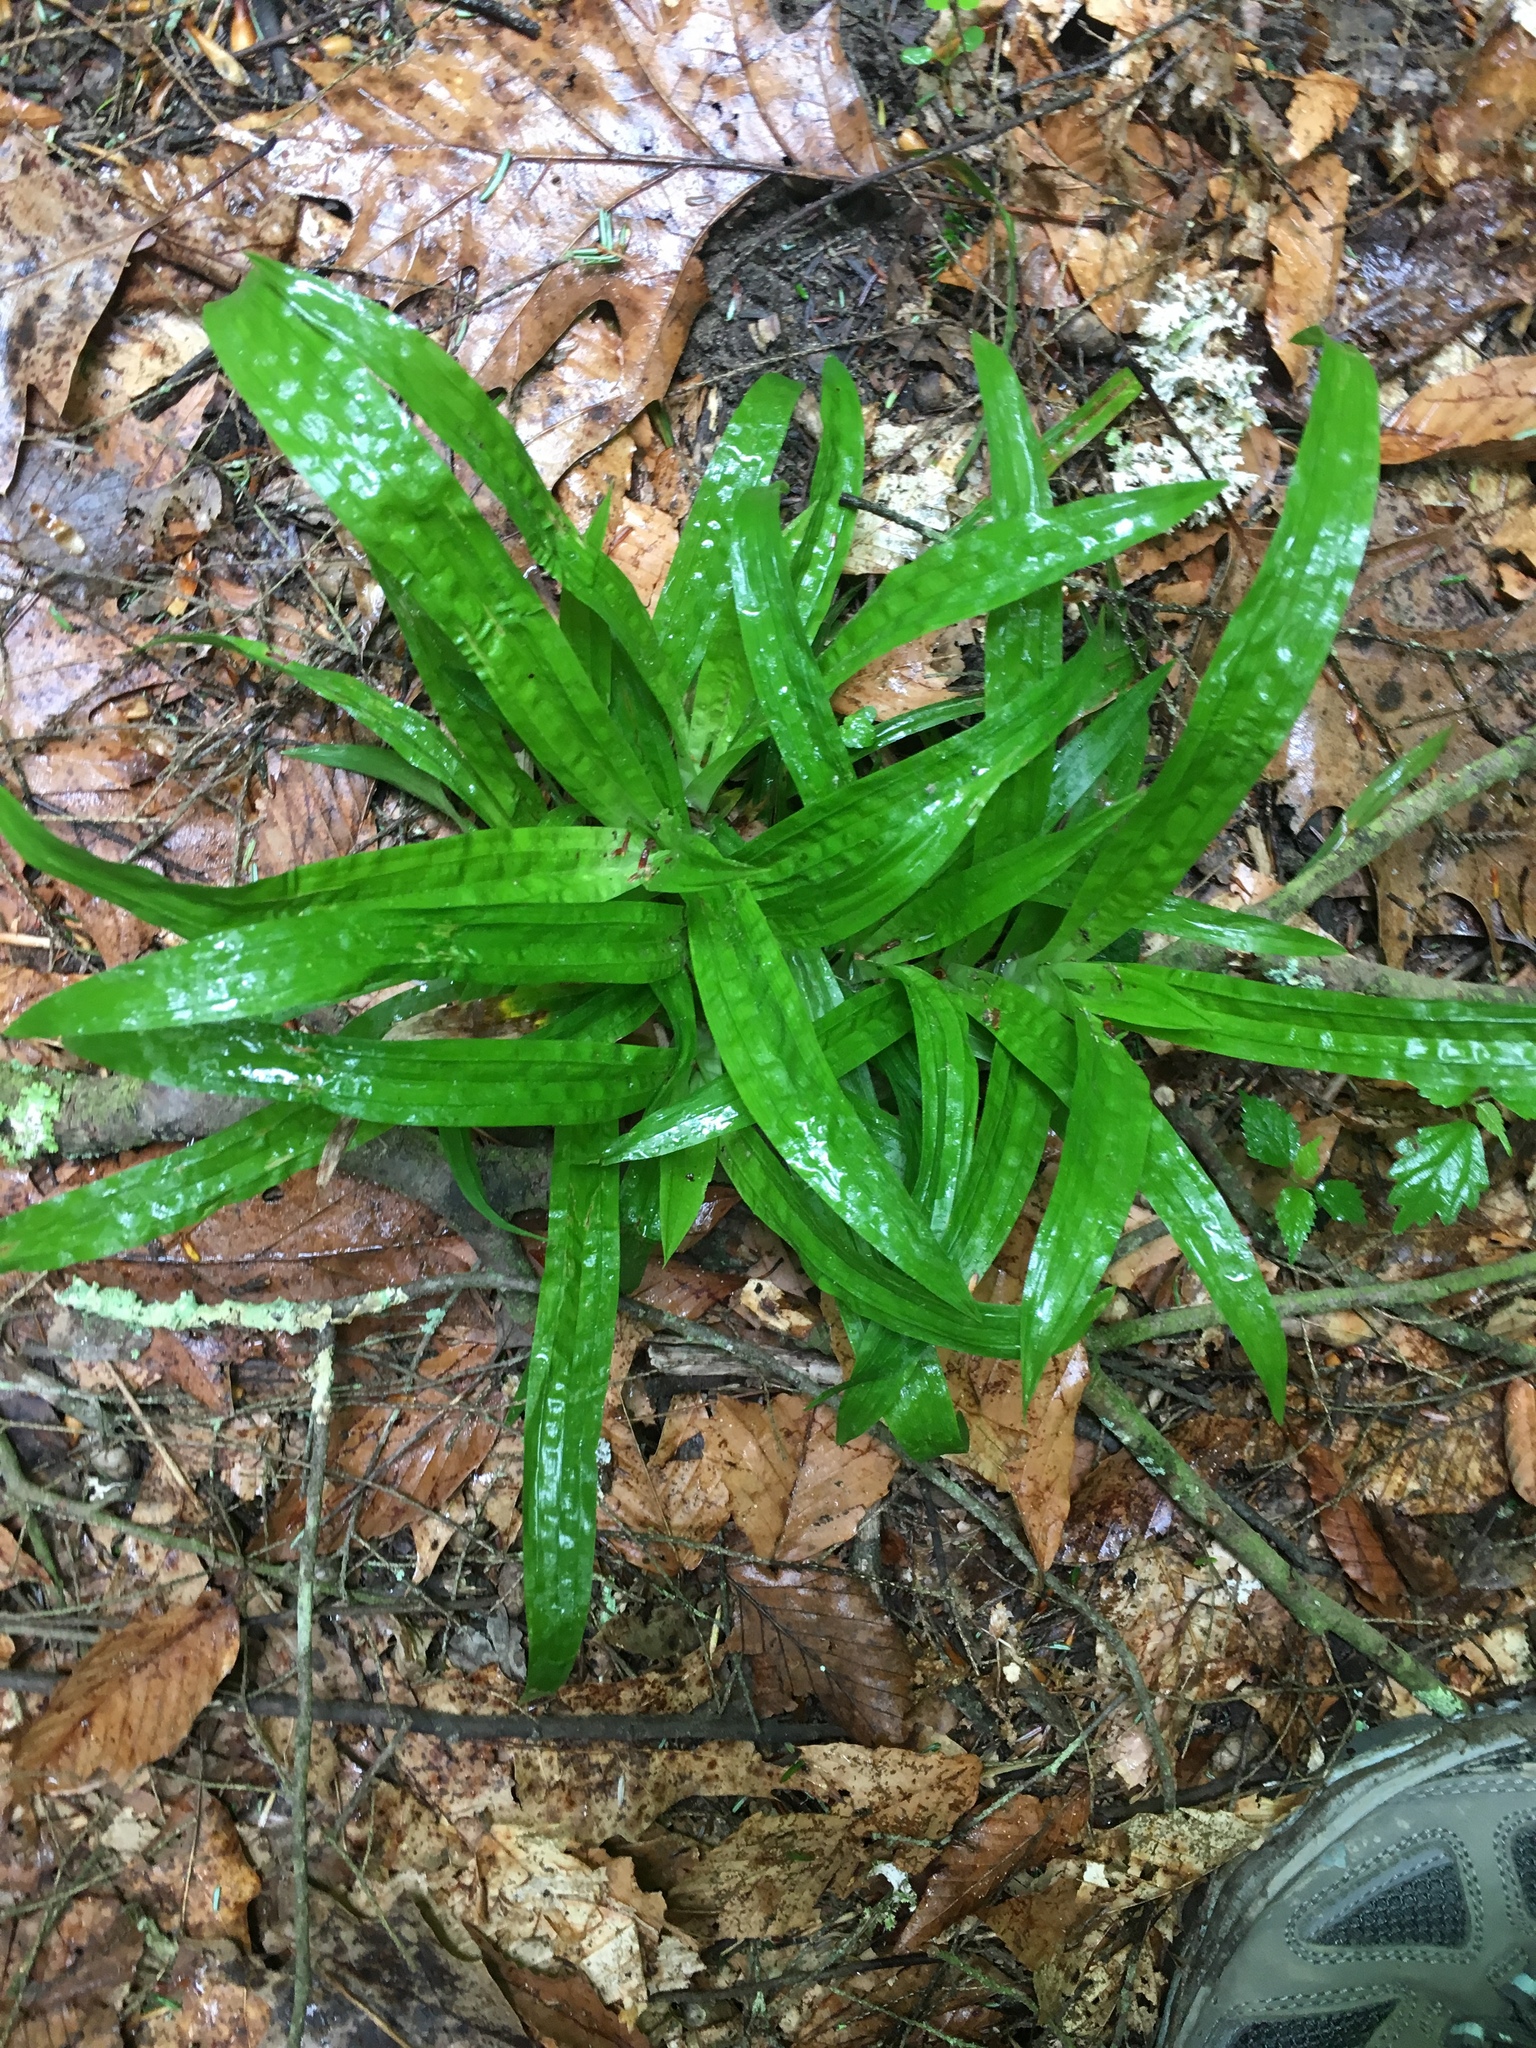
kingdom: Plantae
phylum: Tracheophyta
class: Liliopsida
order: Poales
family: Cyperaceae
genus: Carex
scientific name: Carex plantaginea
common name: Plantain-leaved sedge
